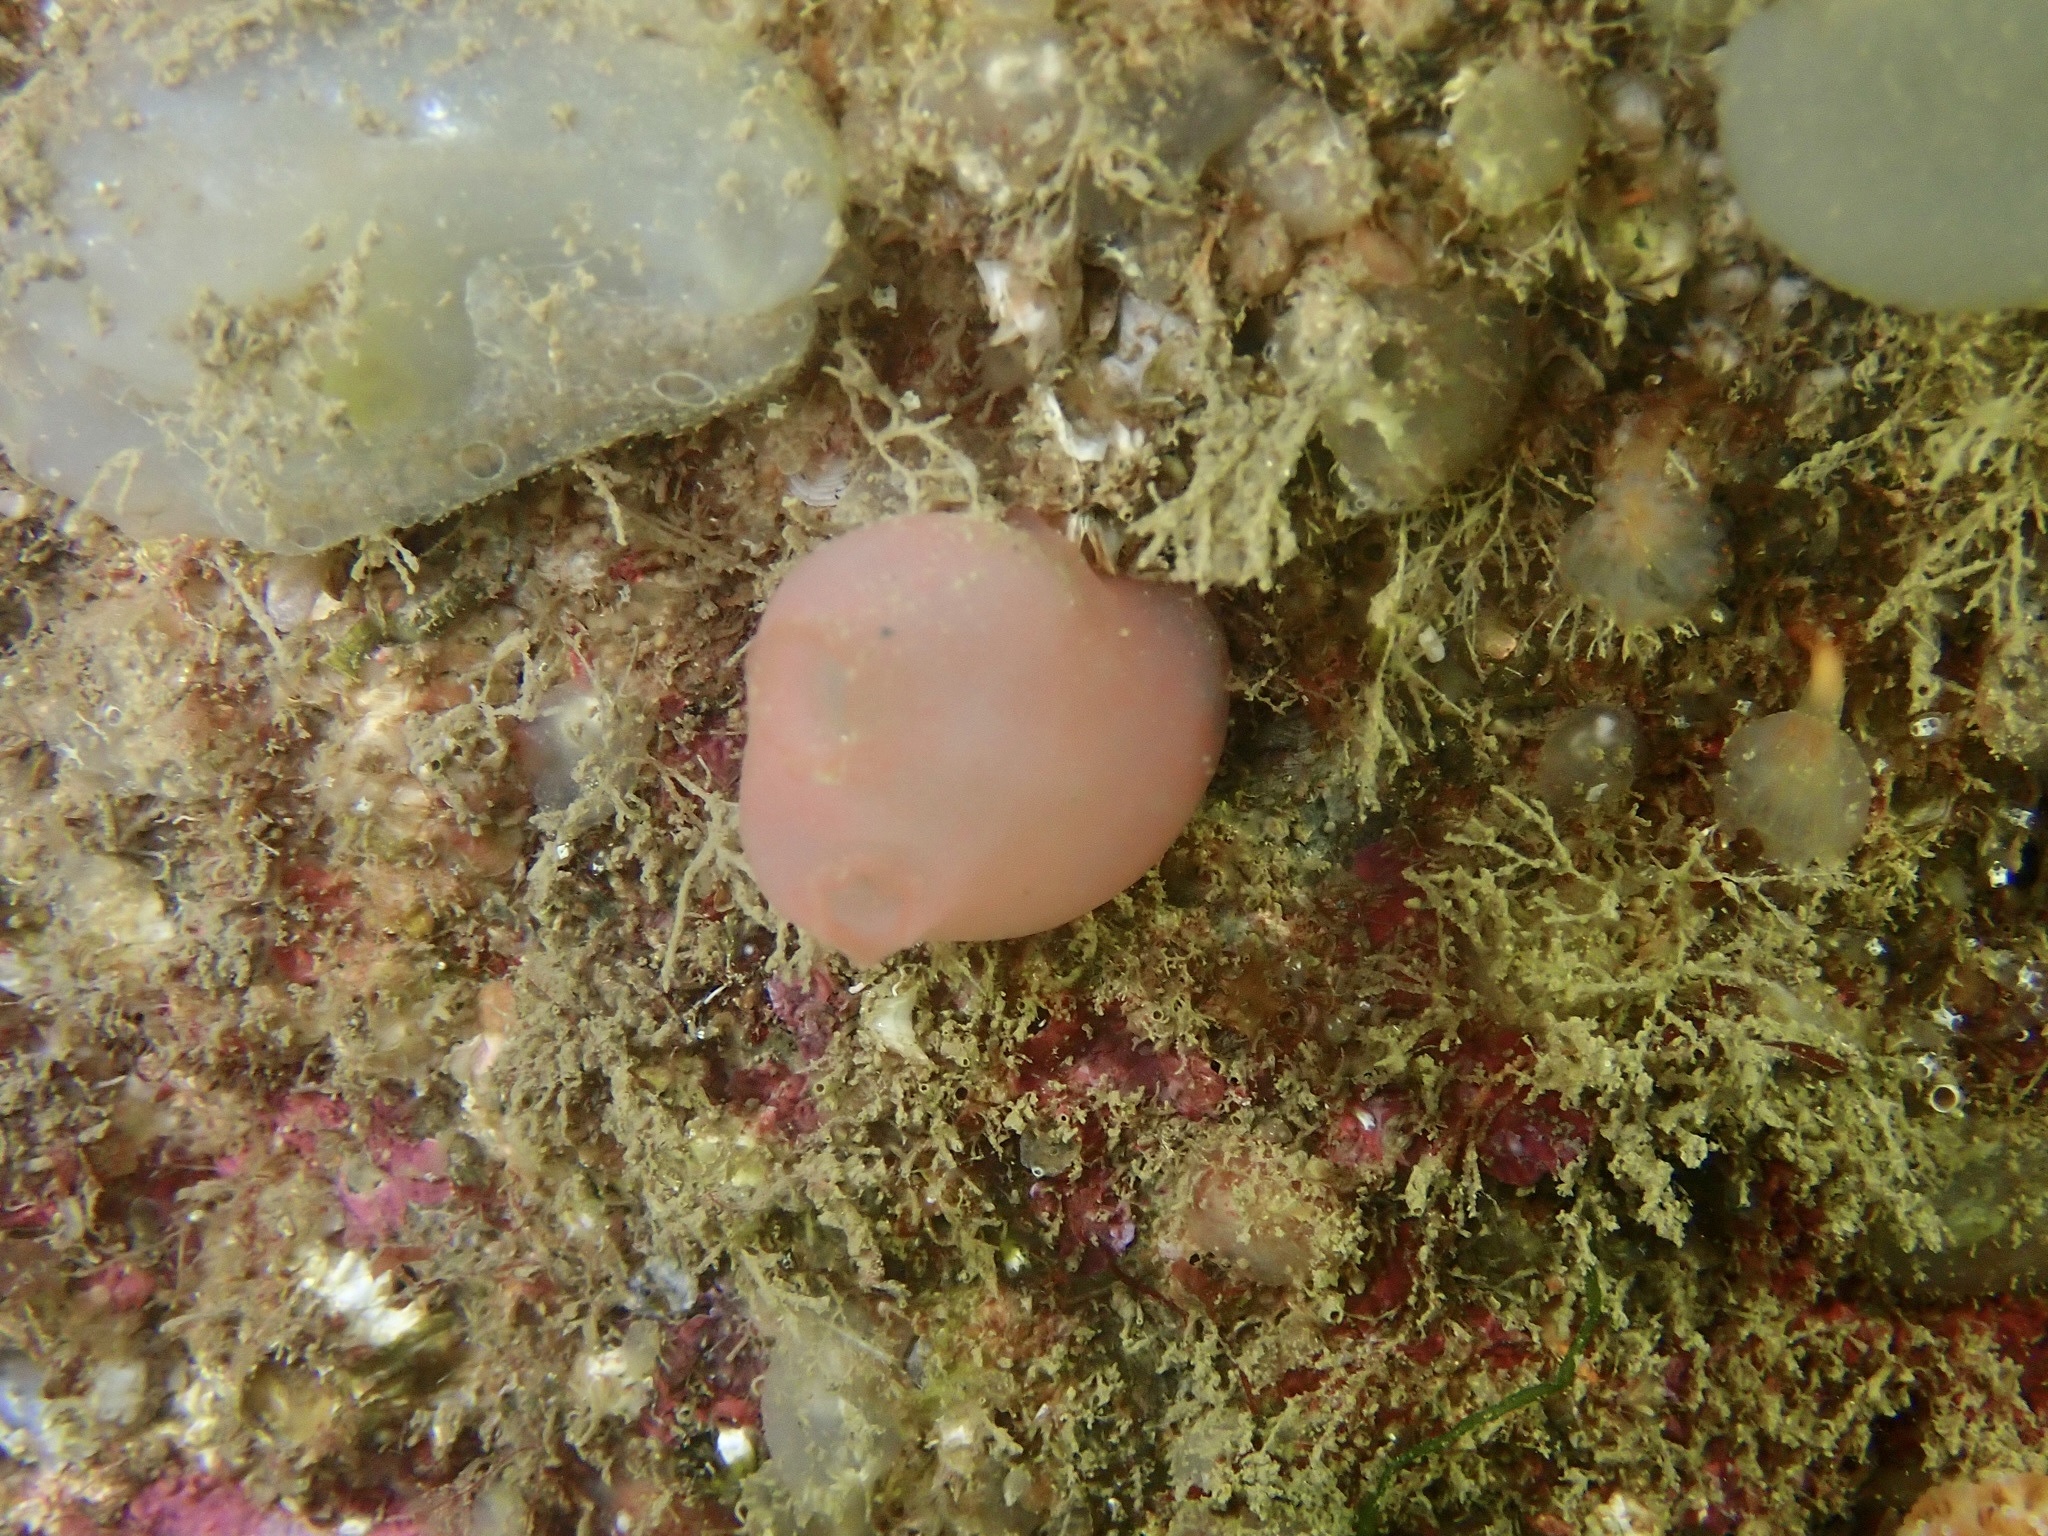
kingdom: Animalia
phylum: Chordata
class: Ascidiacea
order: Phlebobranchia
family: Ascidiidae
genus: Ascidia
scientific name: Ascidia virginea
